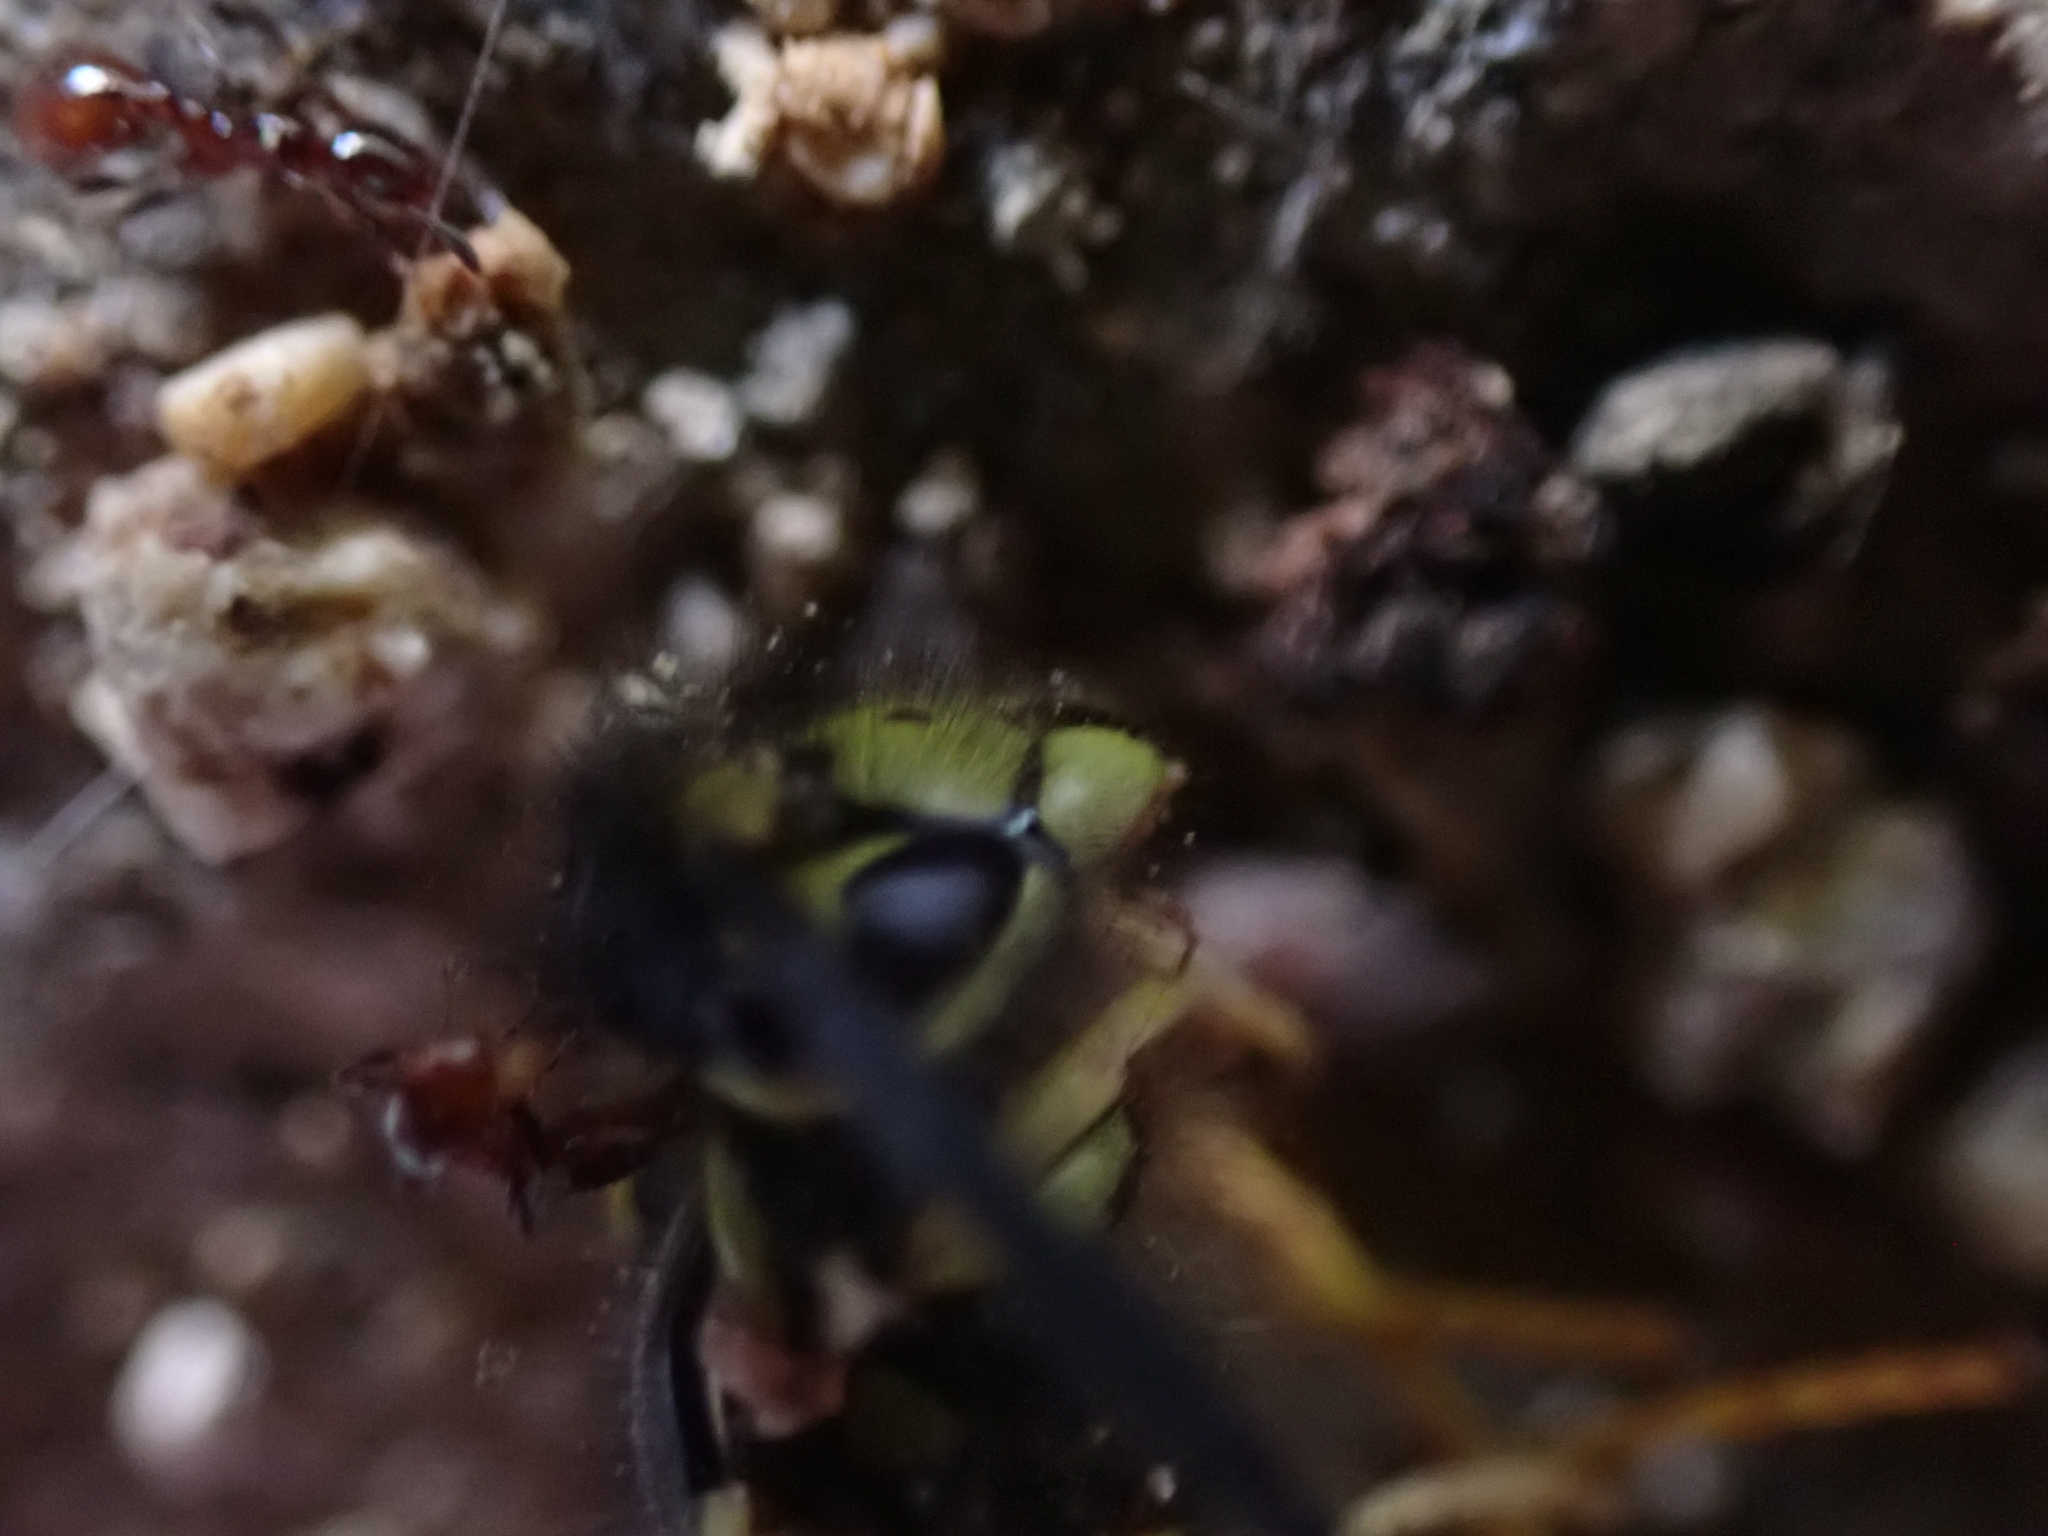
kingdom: Animalia
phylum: Arthropoda
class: Insecta
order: Hymenoptera
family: Vespidae
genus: Vespula
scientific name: Vespula germanica
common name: German wasp
